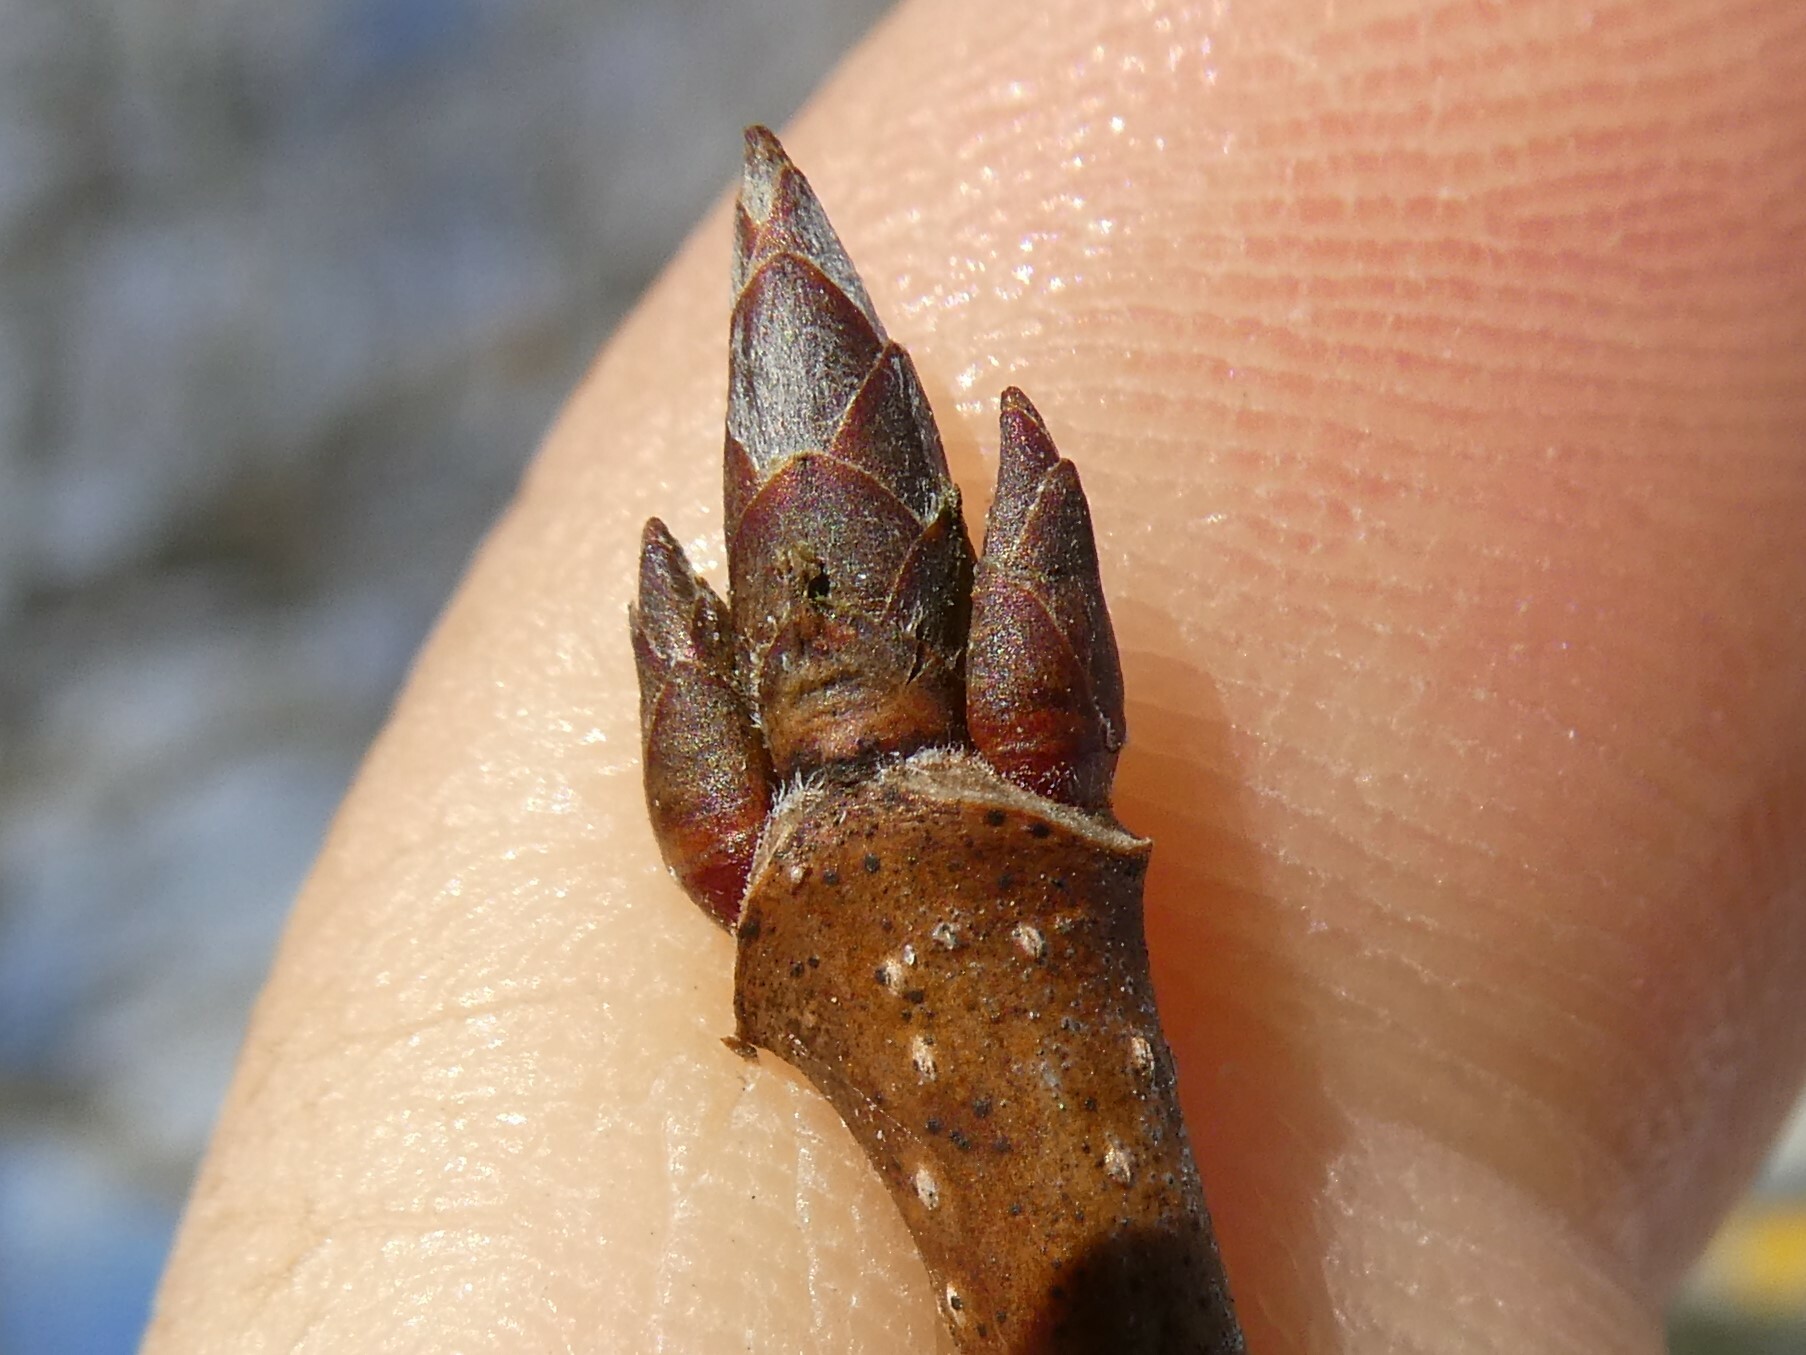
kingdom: Plantae
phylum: Tracheophyta
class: Magnoliopsida
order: Sapindales
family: Sapindaceae
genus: Acer
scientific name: Acer saccharum
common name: Sugar maple
